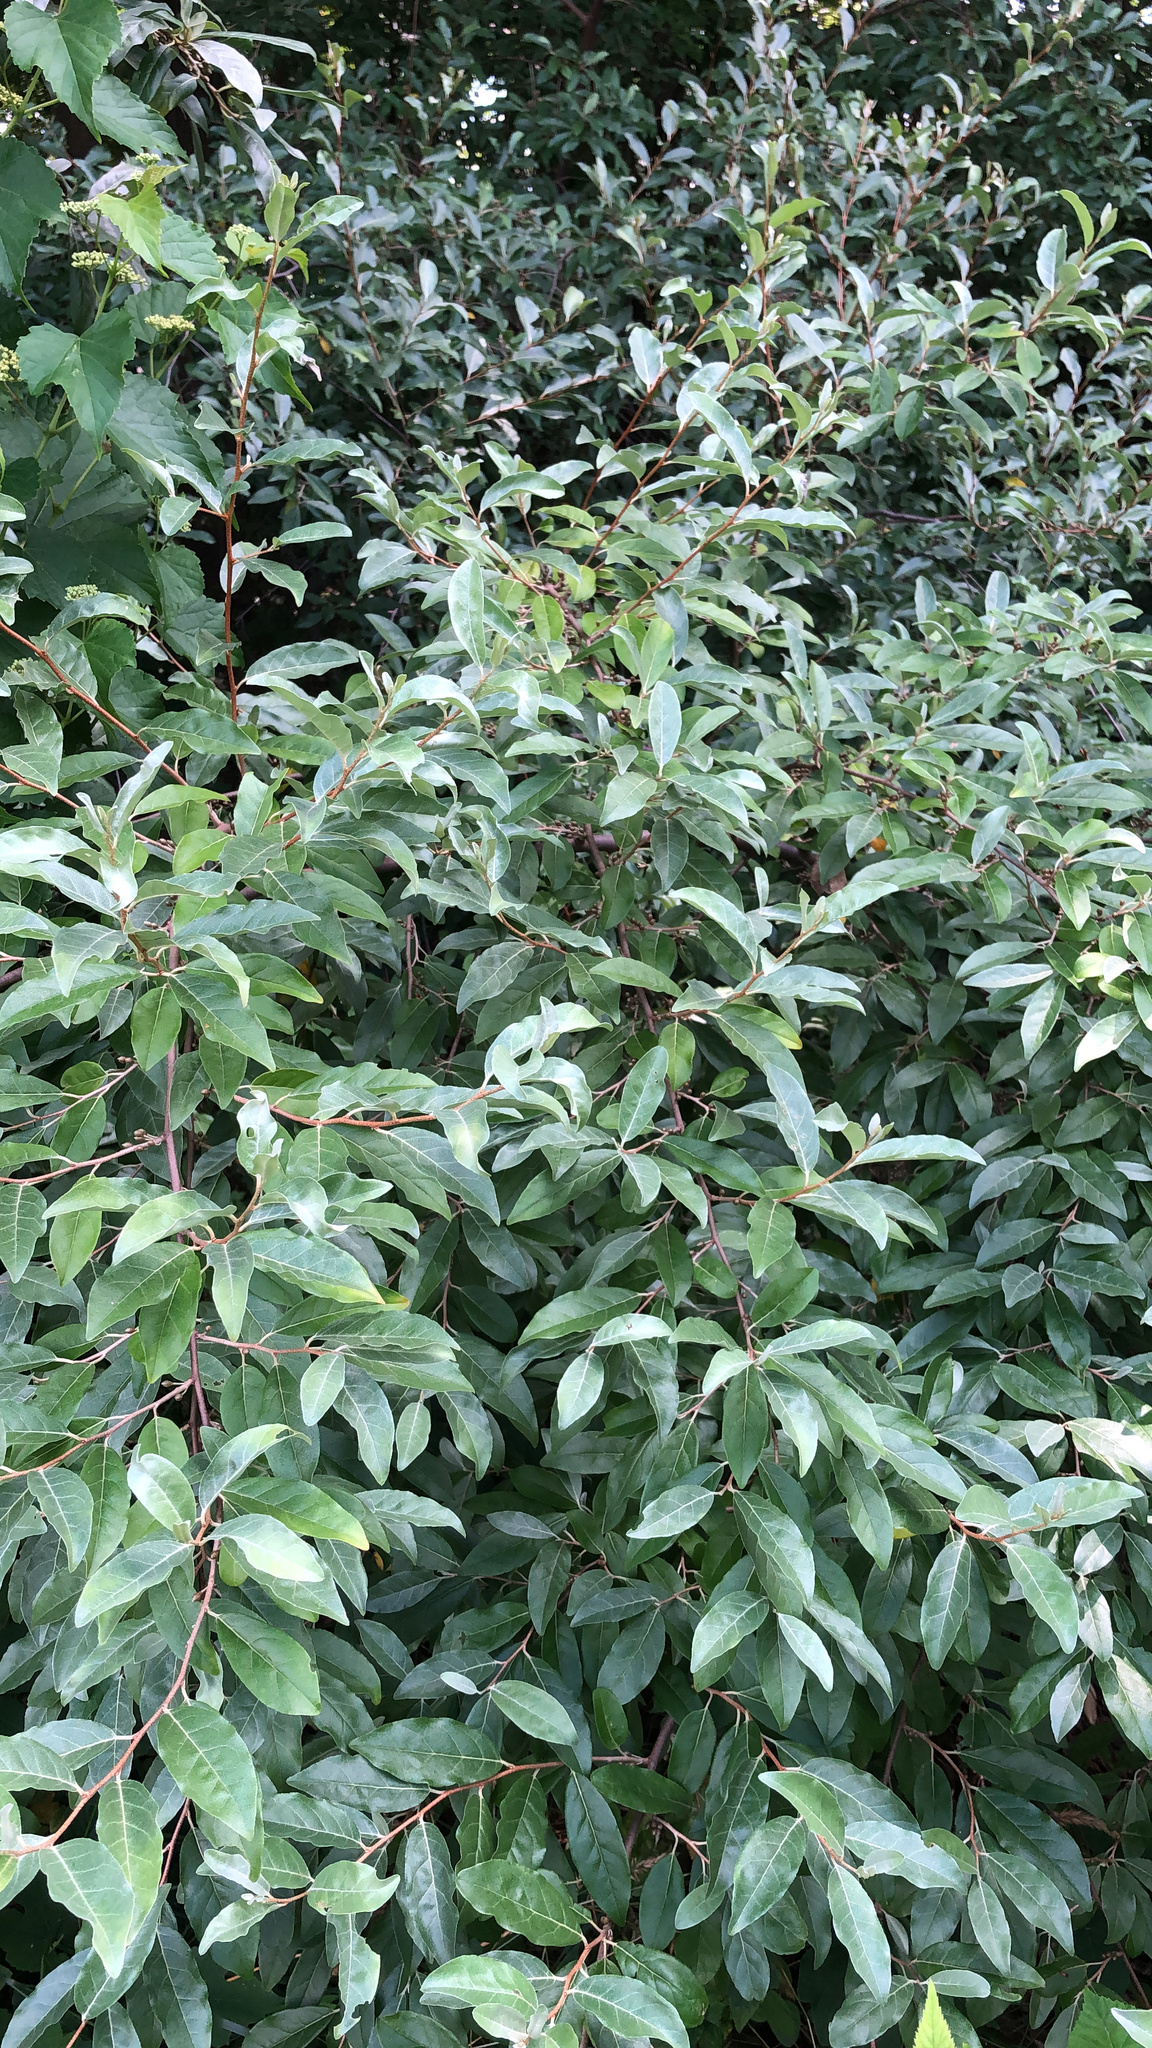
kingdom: Plantae
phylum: Tracheophyta
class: Magnoliopsida
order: Rosales
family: Elaeagnaceae
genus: Elaeagnus
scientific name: Elaeagnus umbellata
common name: Autumn olive
